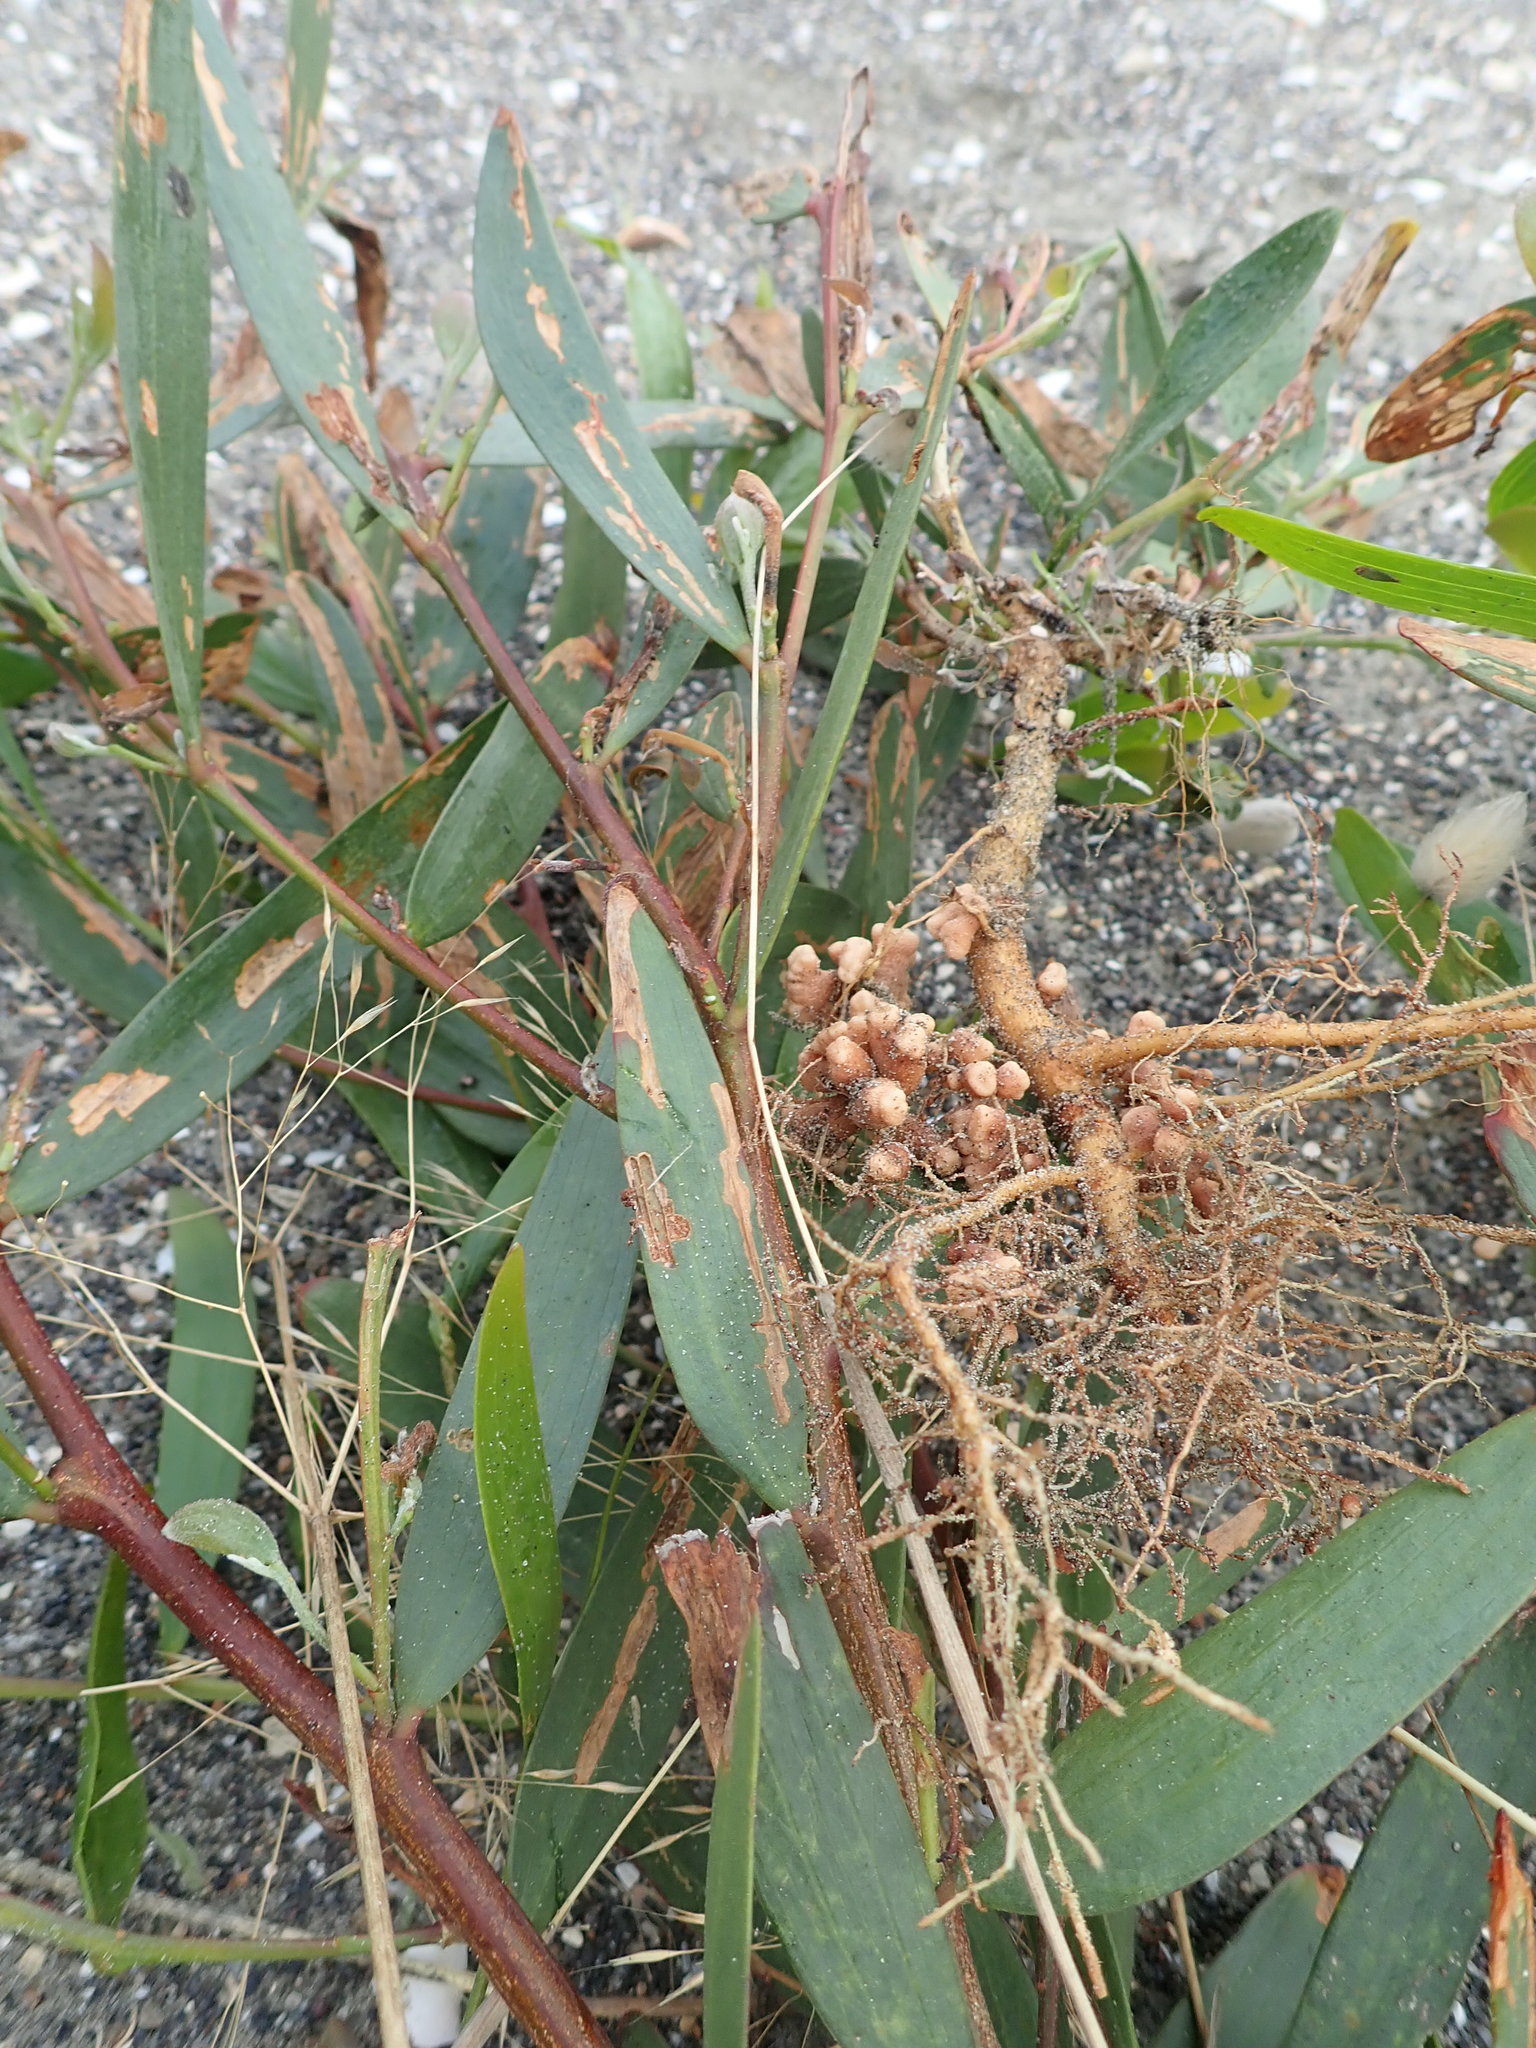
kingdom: Plantae
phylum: Tracheophyta
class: Magnoliopsida
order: Fabales
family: Fabaceae
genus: Acacia
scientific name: Acacia longifolia
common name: Sydney golden wattle
